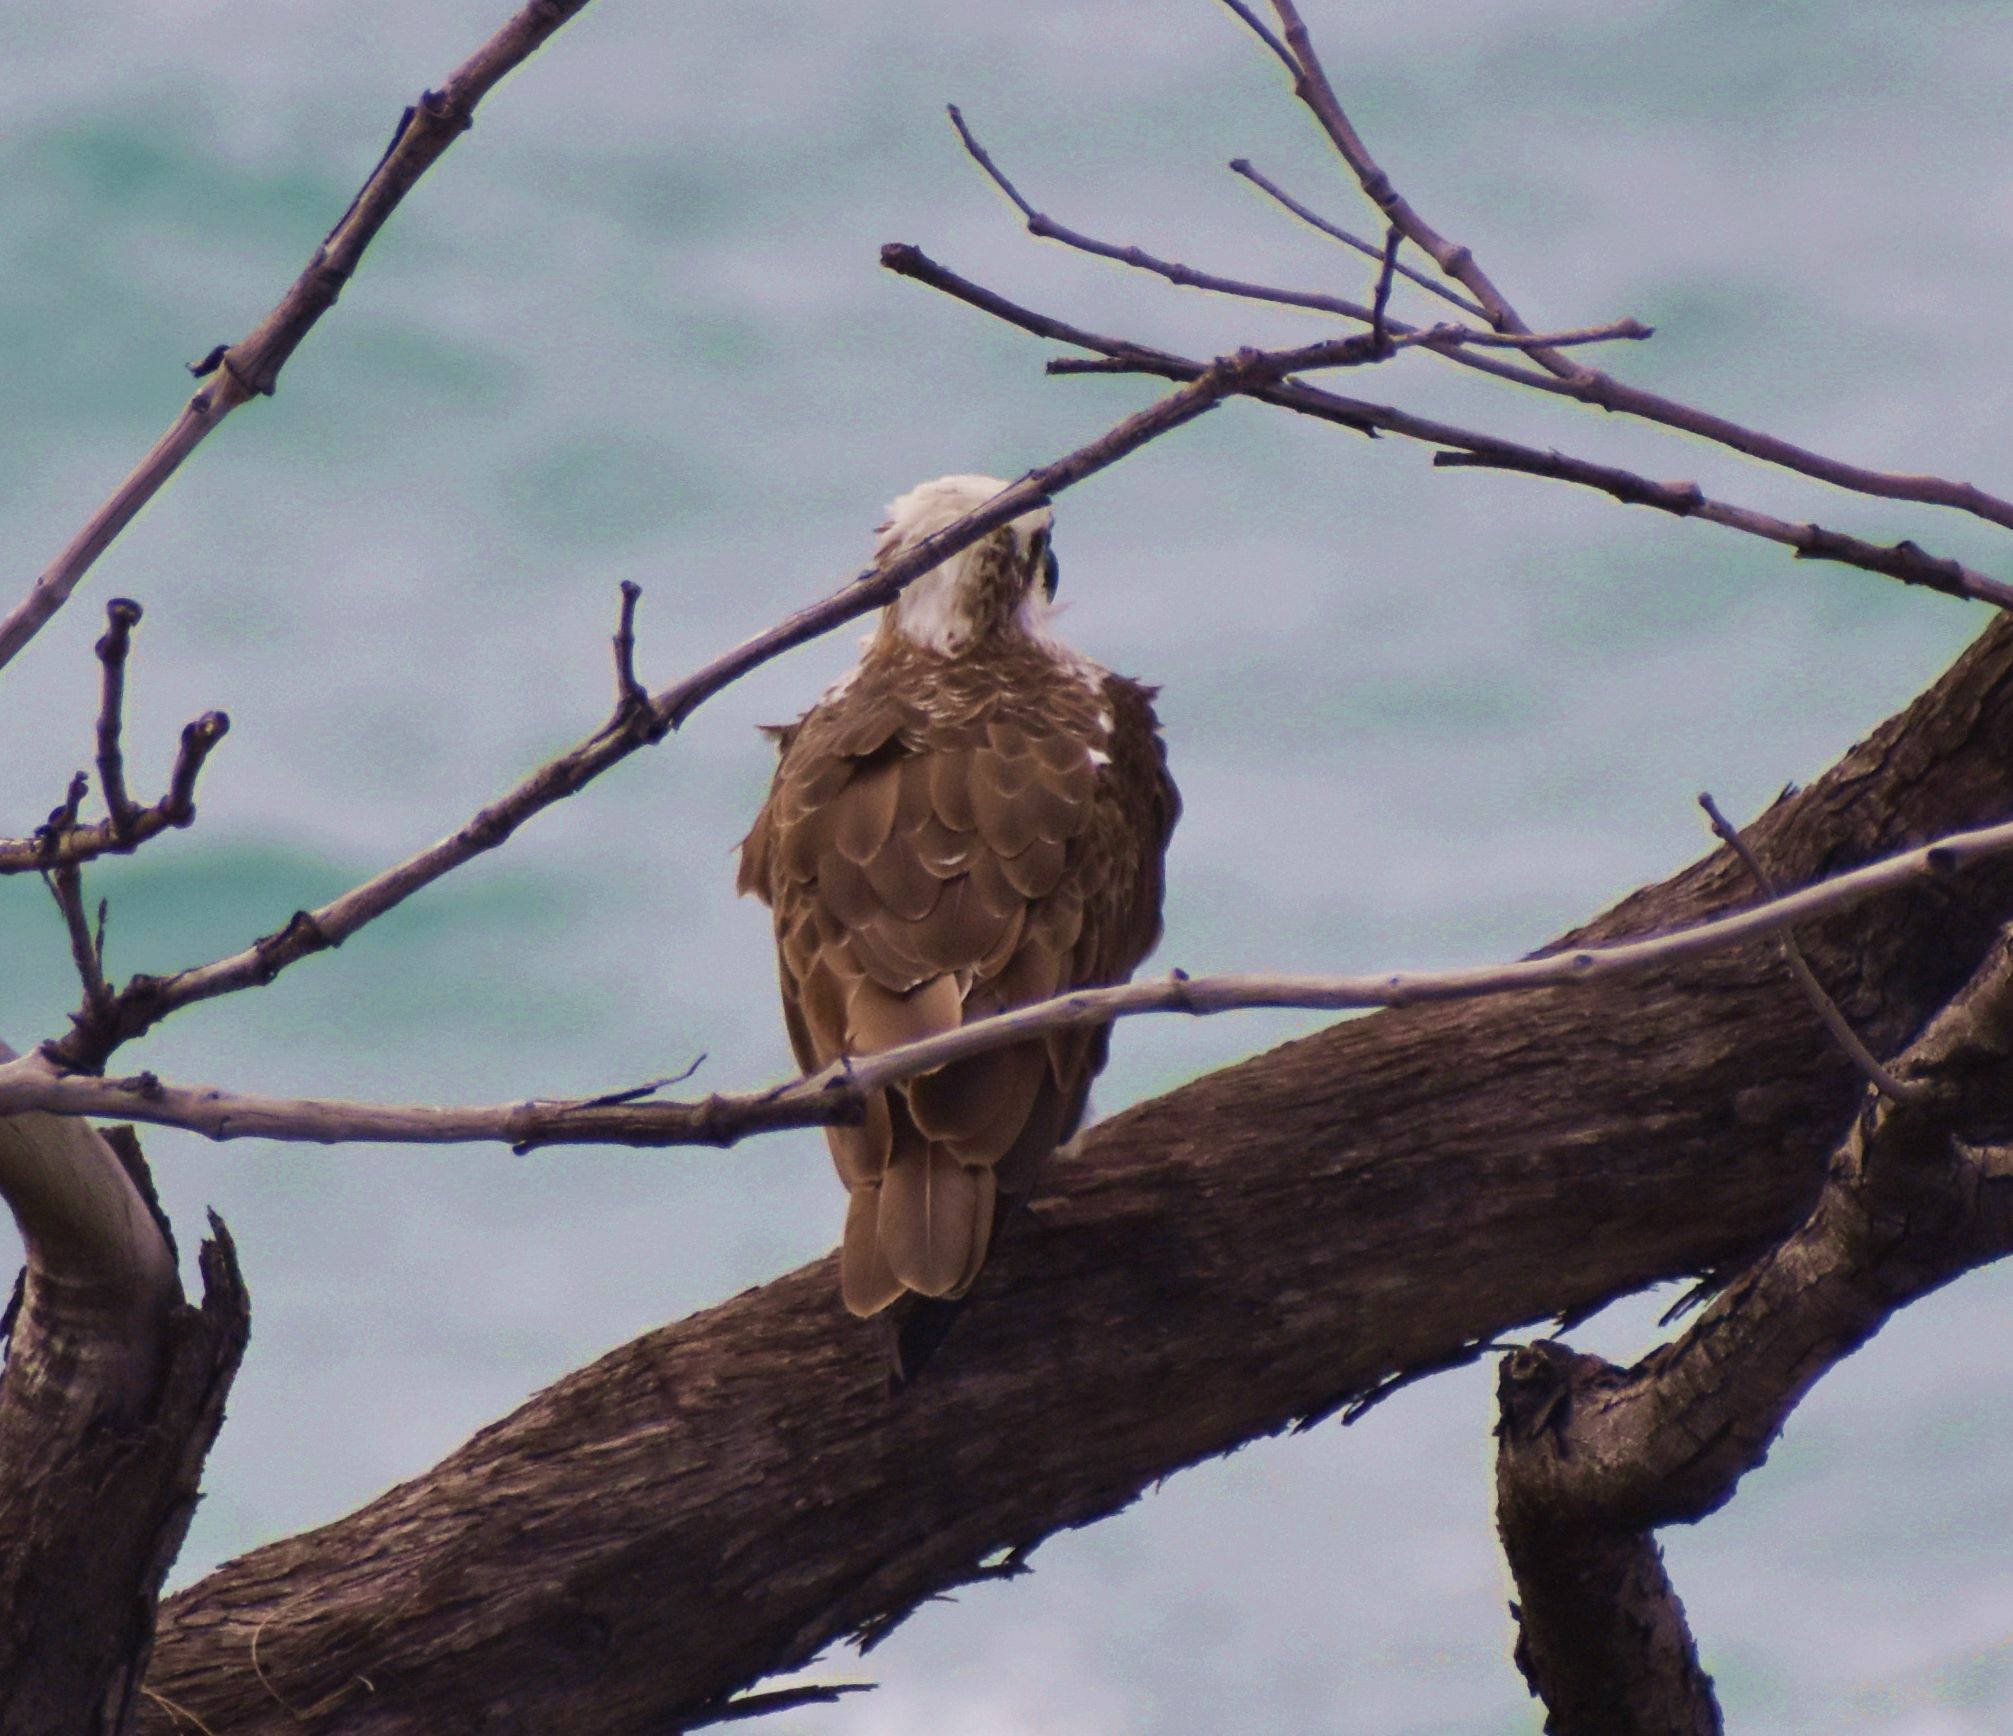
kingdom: Animalia
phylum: Chordata
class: Aves
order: Accipitriformes
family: Pandionidae
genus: Pandion
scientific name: Pandion cristatus
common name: Eastern osprey
